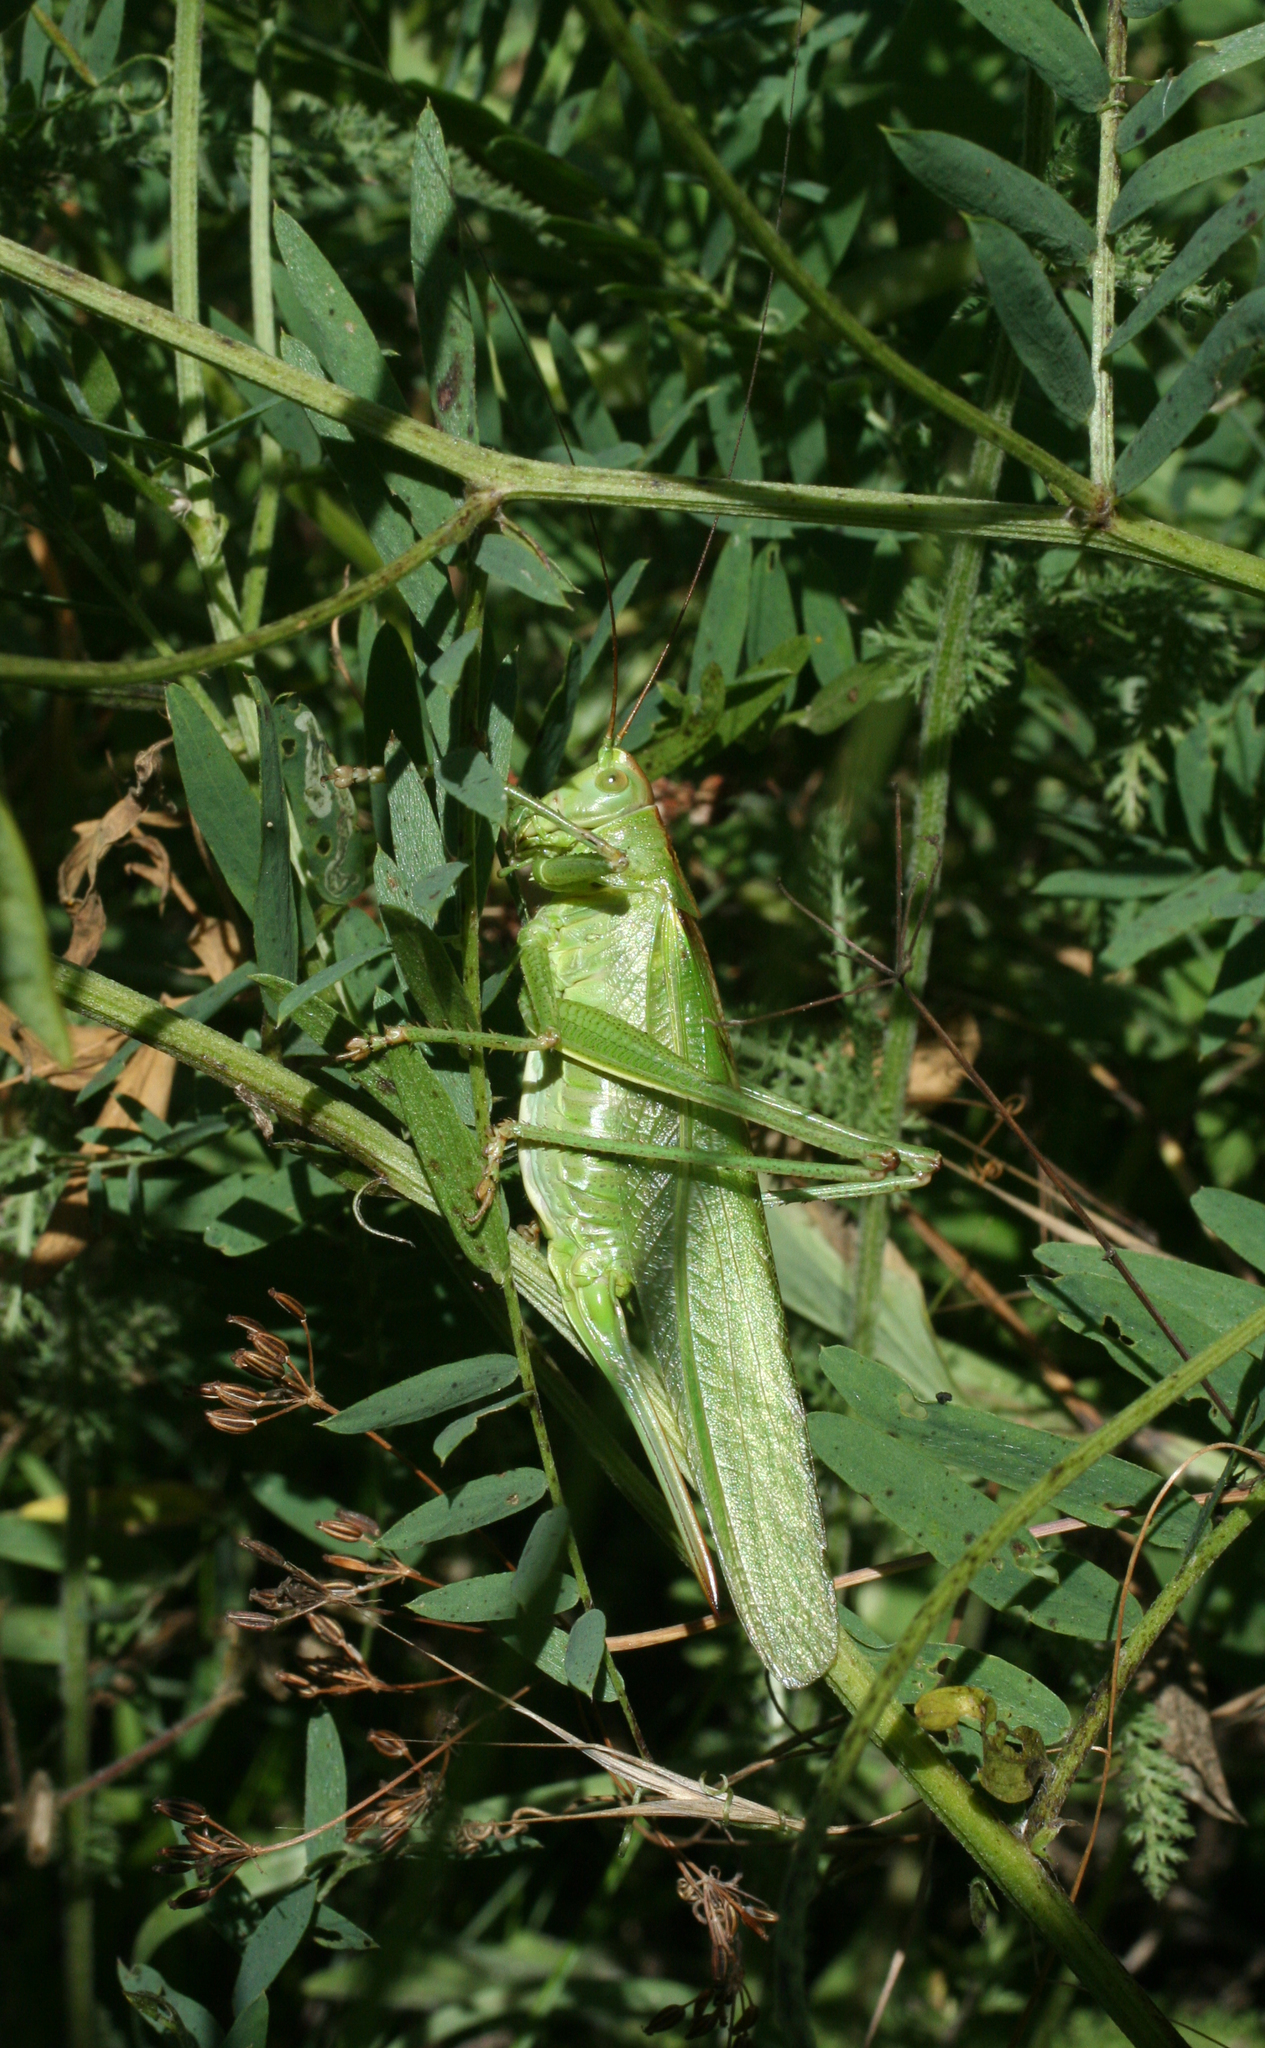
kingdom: Animalia
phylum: Arthropoda
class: Insecta
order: Orthoptera
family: Tettigoniidae
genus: Tettigonia
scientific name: Tettigonia viridissima
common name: Great green bush-cricket
